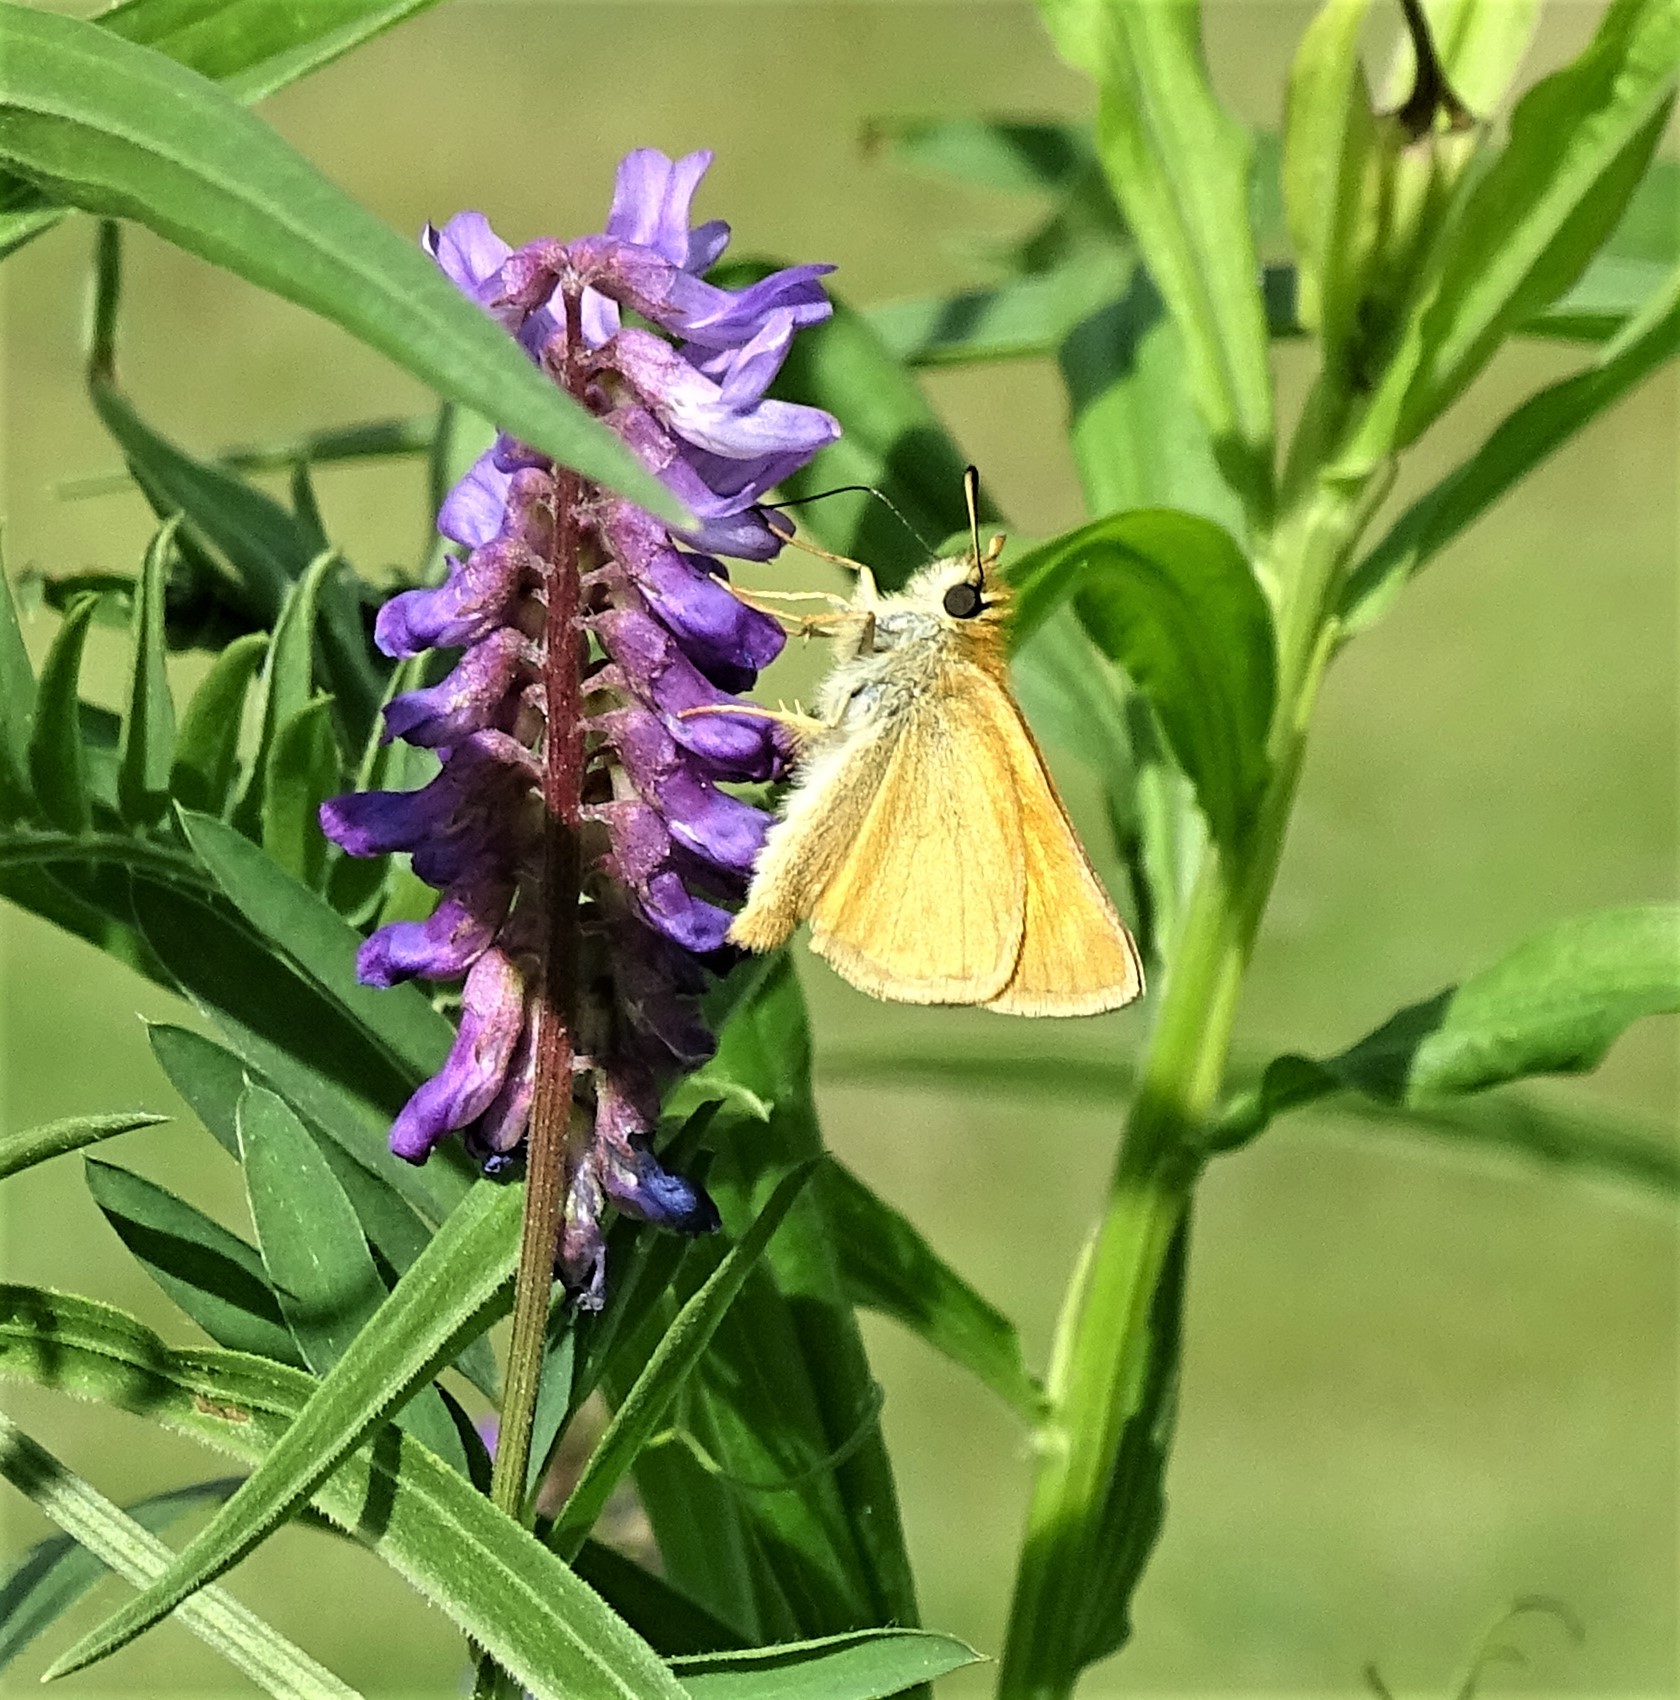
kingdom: Animalia
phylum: Arthropoda
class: Insecta
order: Lepidoptera
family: Hesperiidae
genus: Thymelicus
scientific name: Thymelicus lineola
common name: Essex skipper
